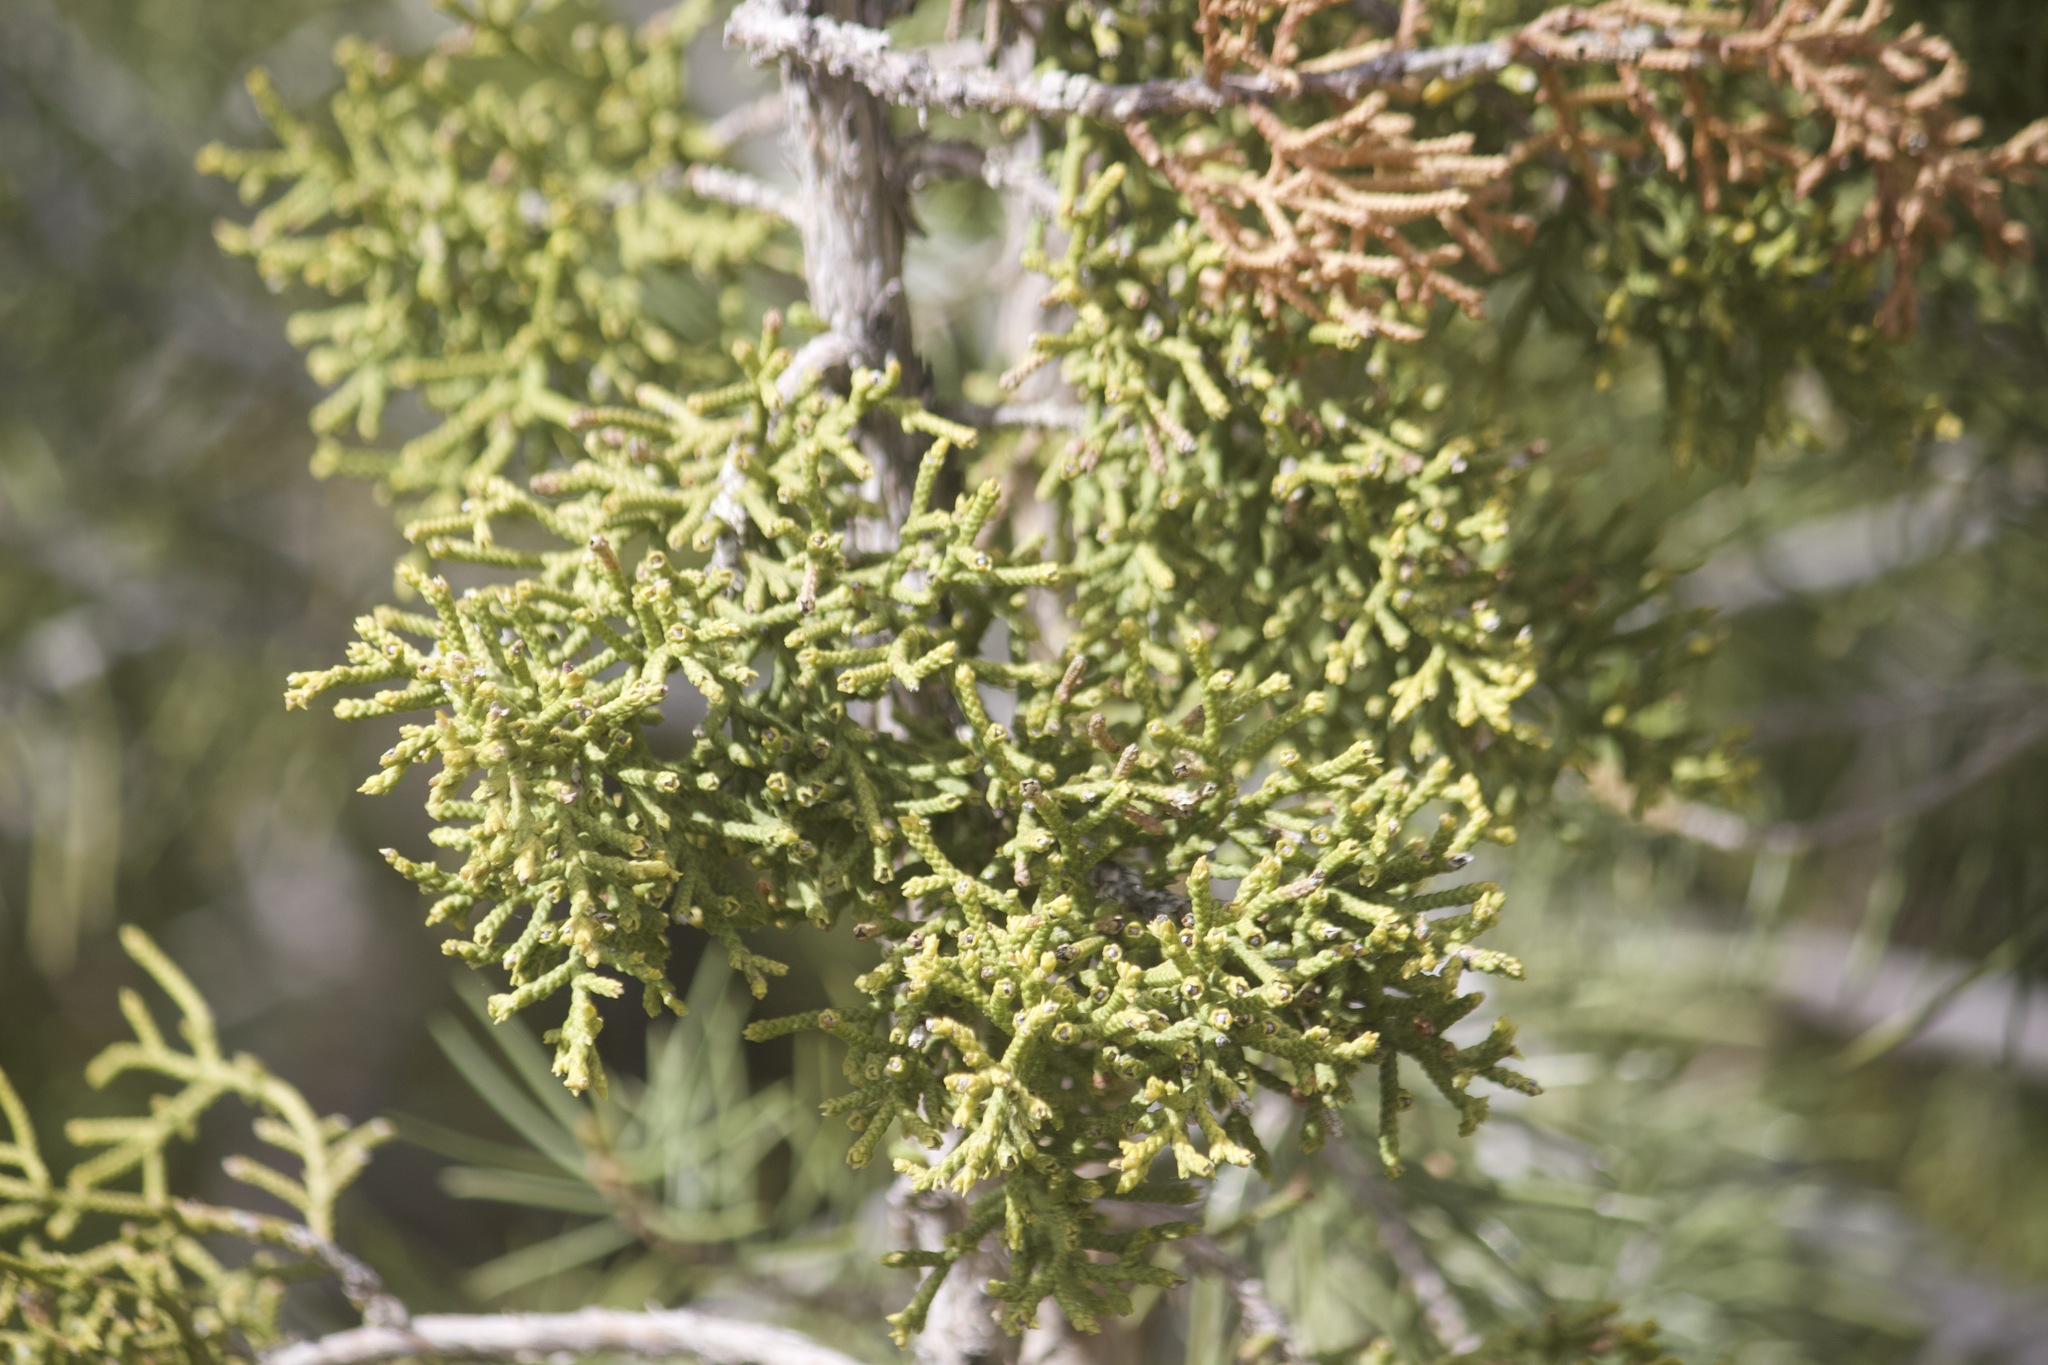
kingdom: Plantae
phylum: Tracheophyta
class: Pinopsida
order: Pinales
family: Cupressaceae
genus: Juniperus
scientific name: Juniperus californica
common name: California juniper
